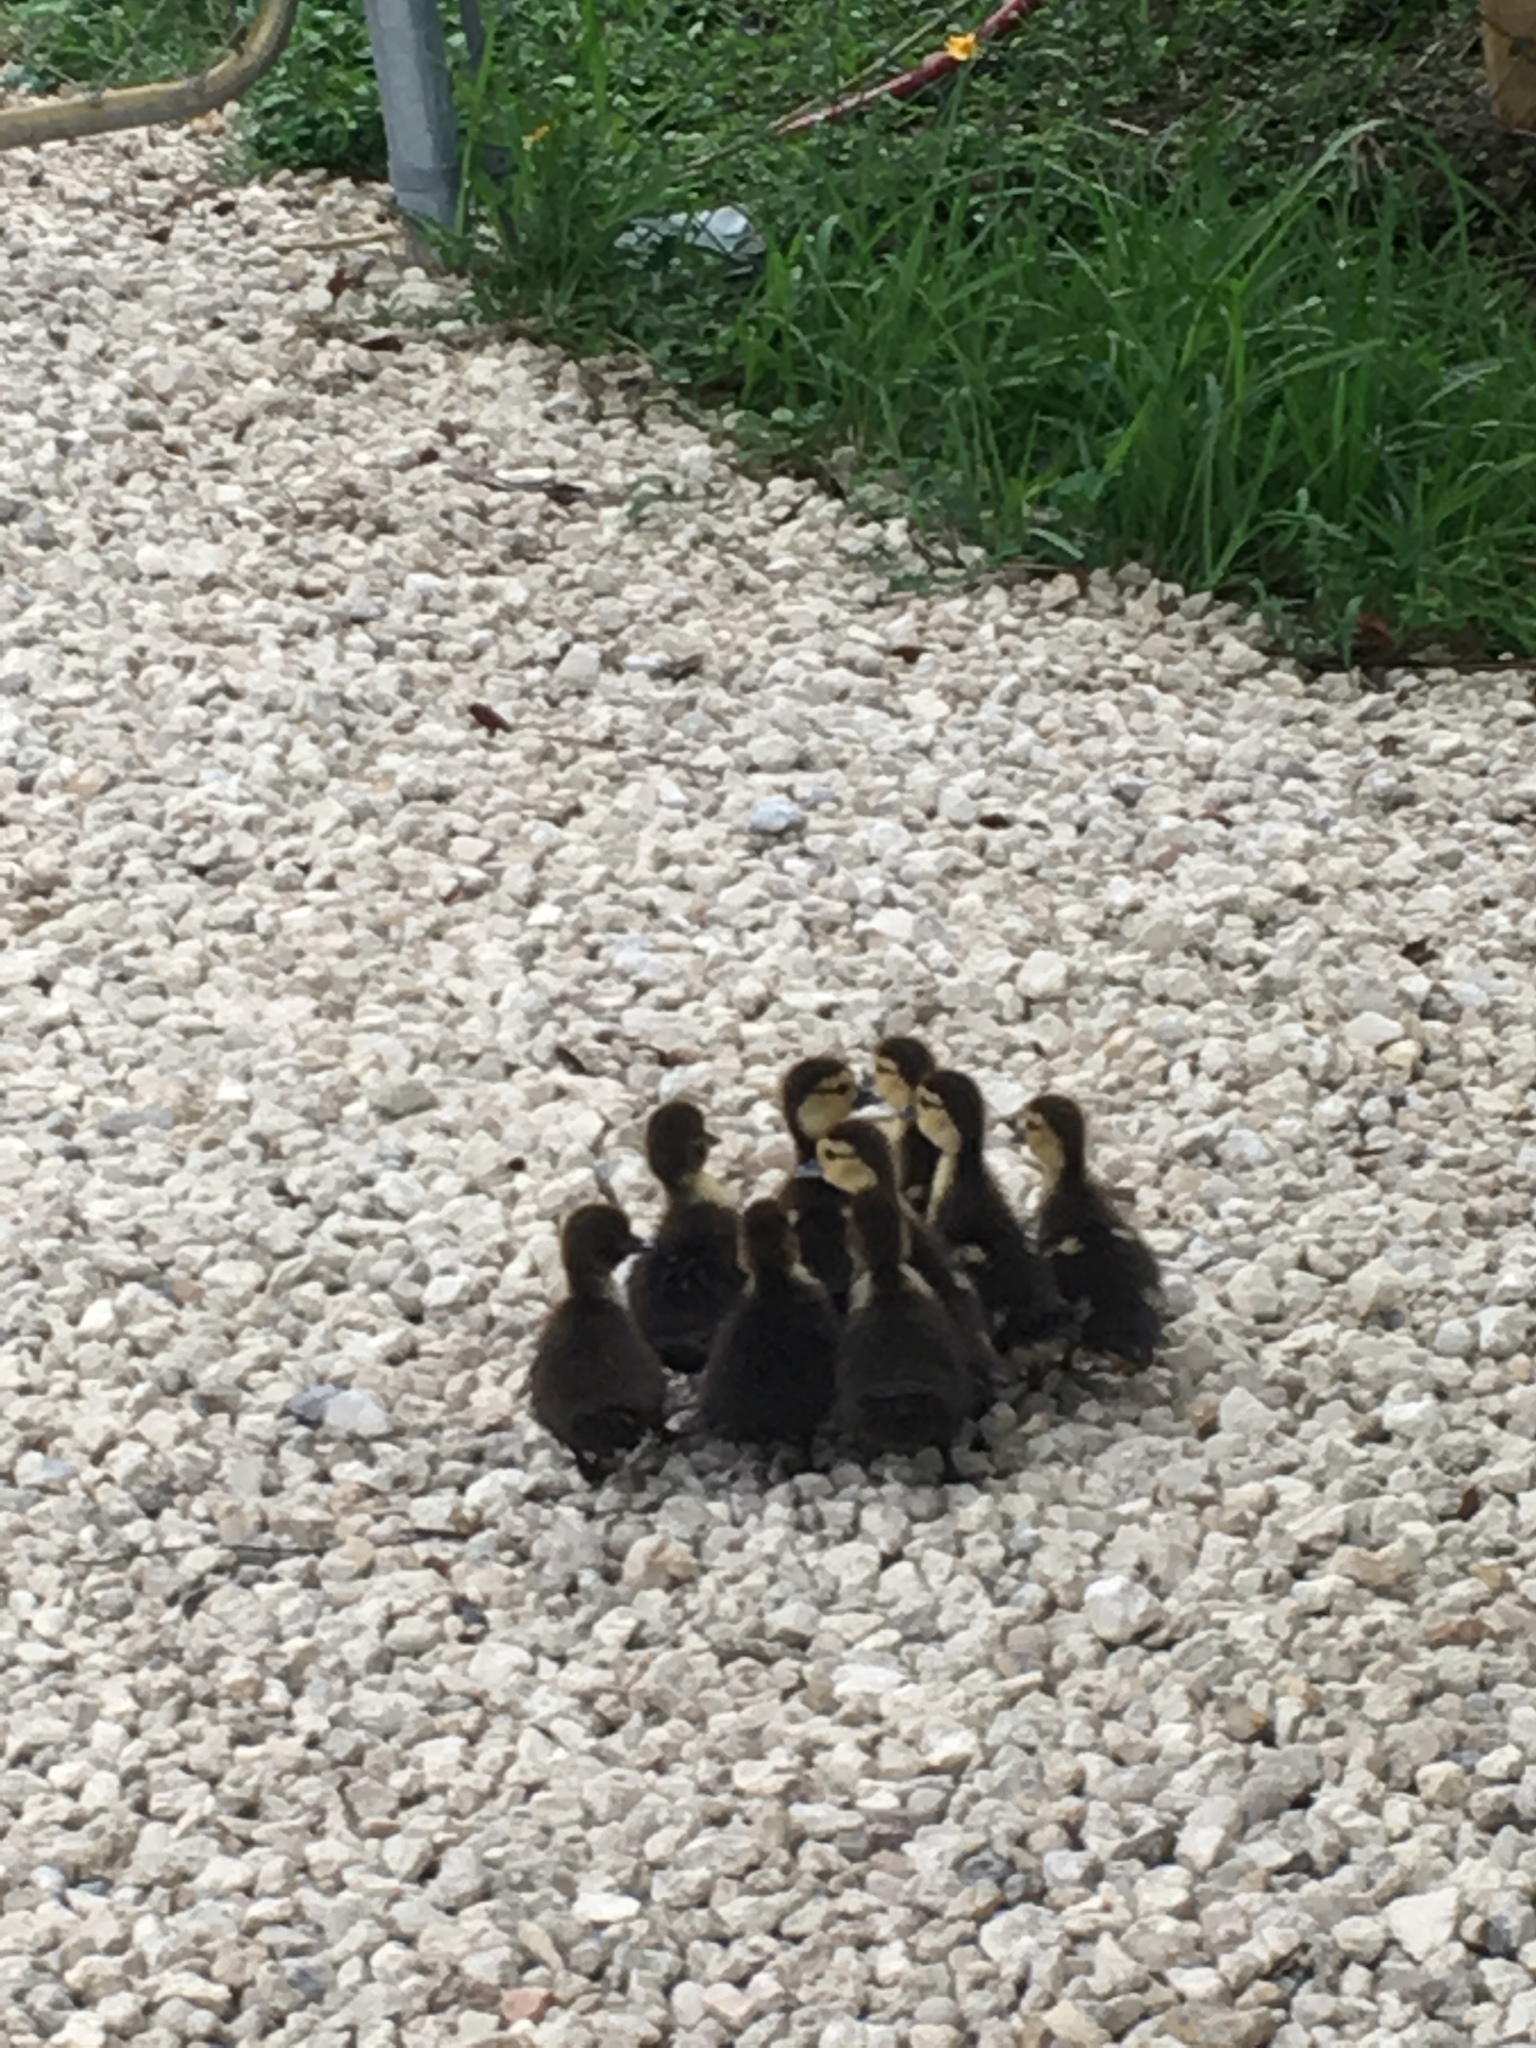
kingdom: Animalia
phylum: Chordata
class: Aves
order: Anseriformes
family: Anatidae
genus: Cairina
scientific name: Cairina moschata
